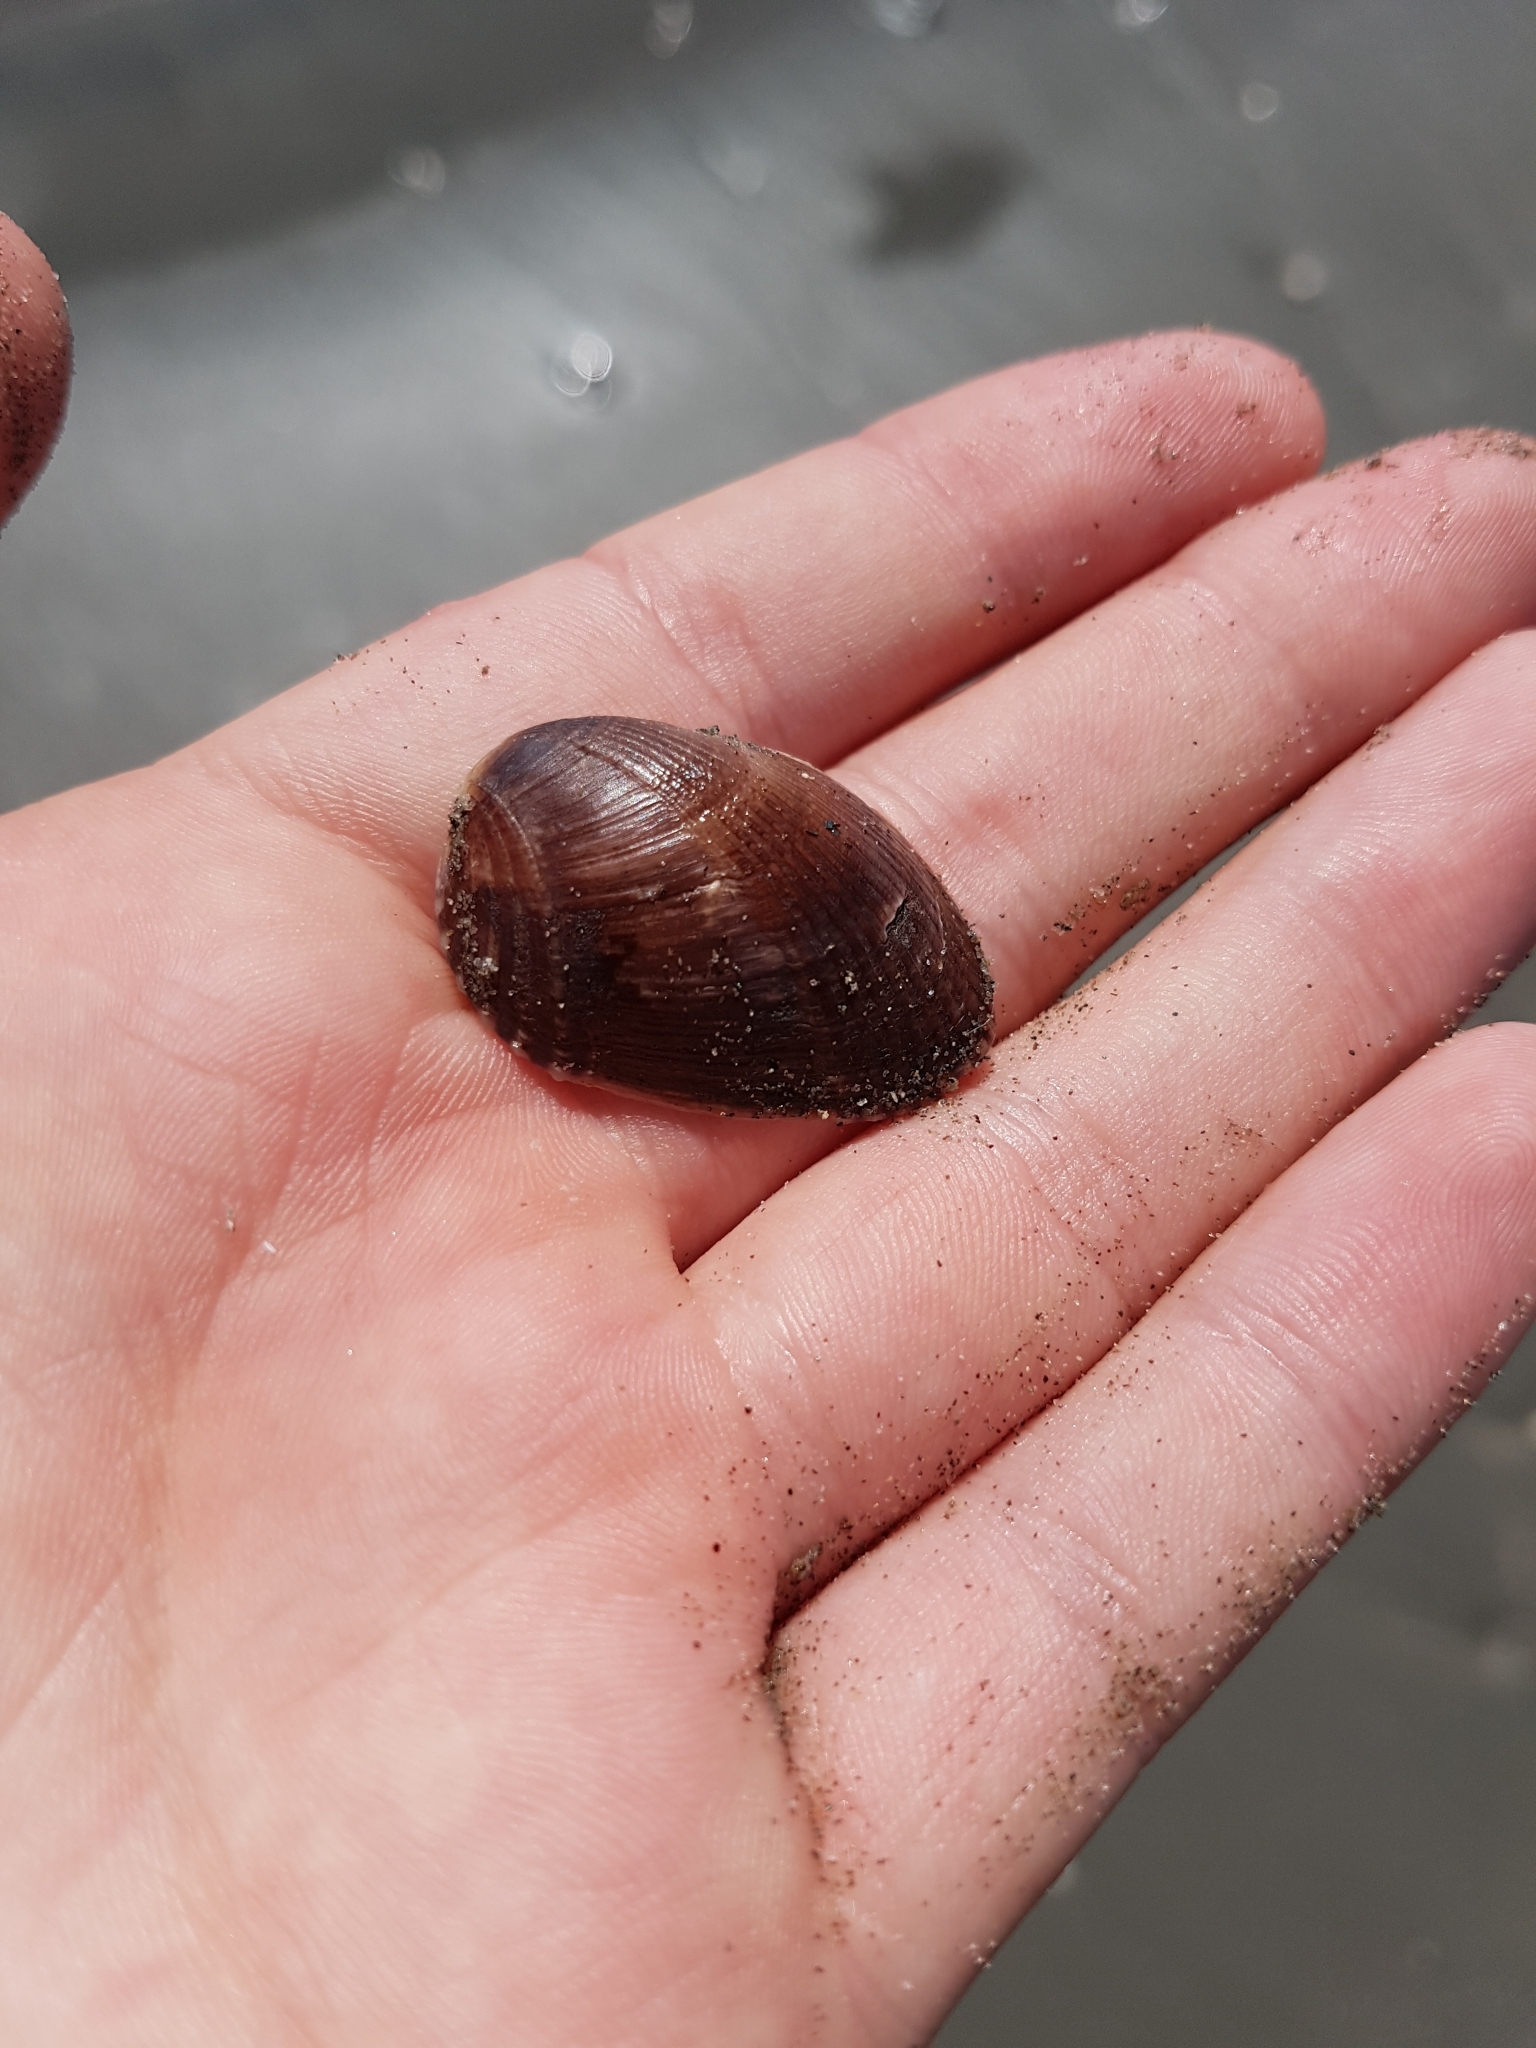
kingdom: Animalia
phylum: Mollusca
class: Bivalvia
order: Mytilida
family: Mytilidae
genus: Musculus
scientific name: Musculus impactus
